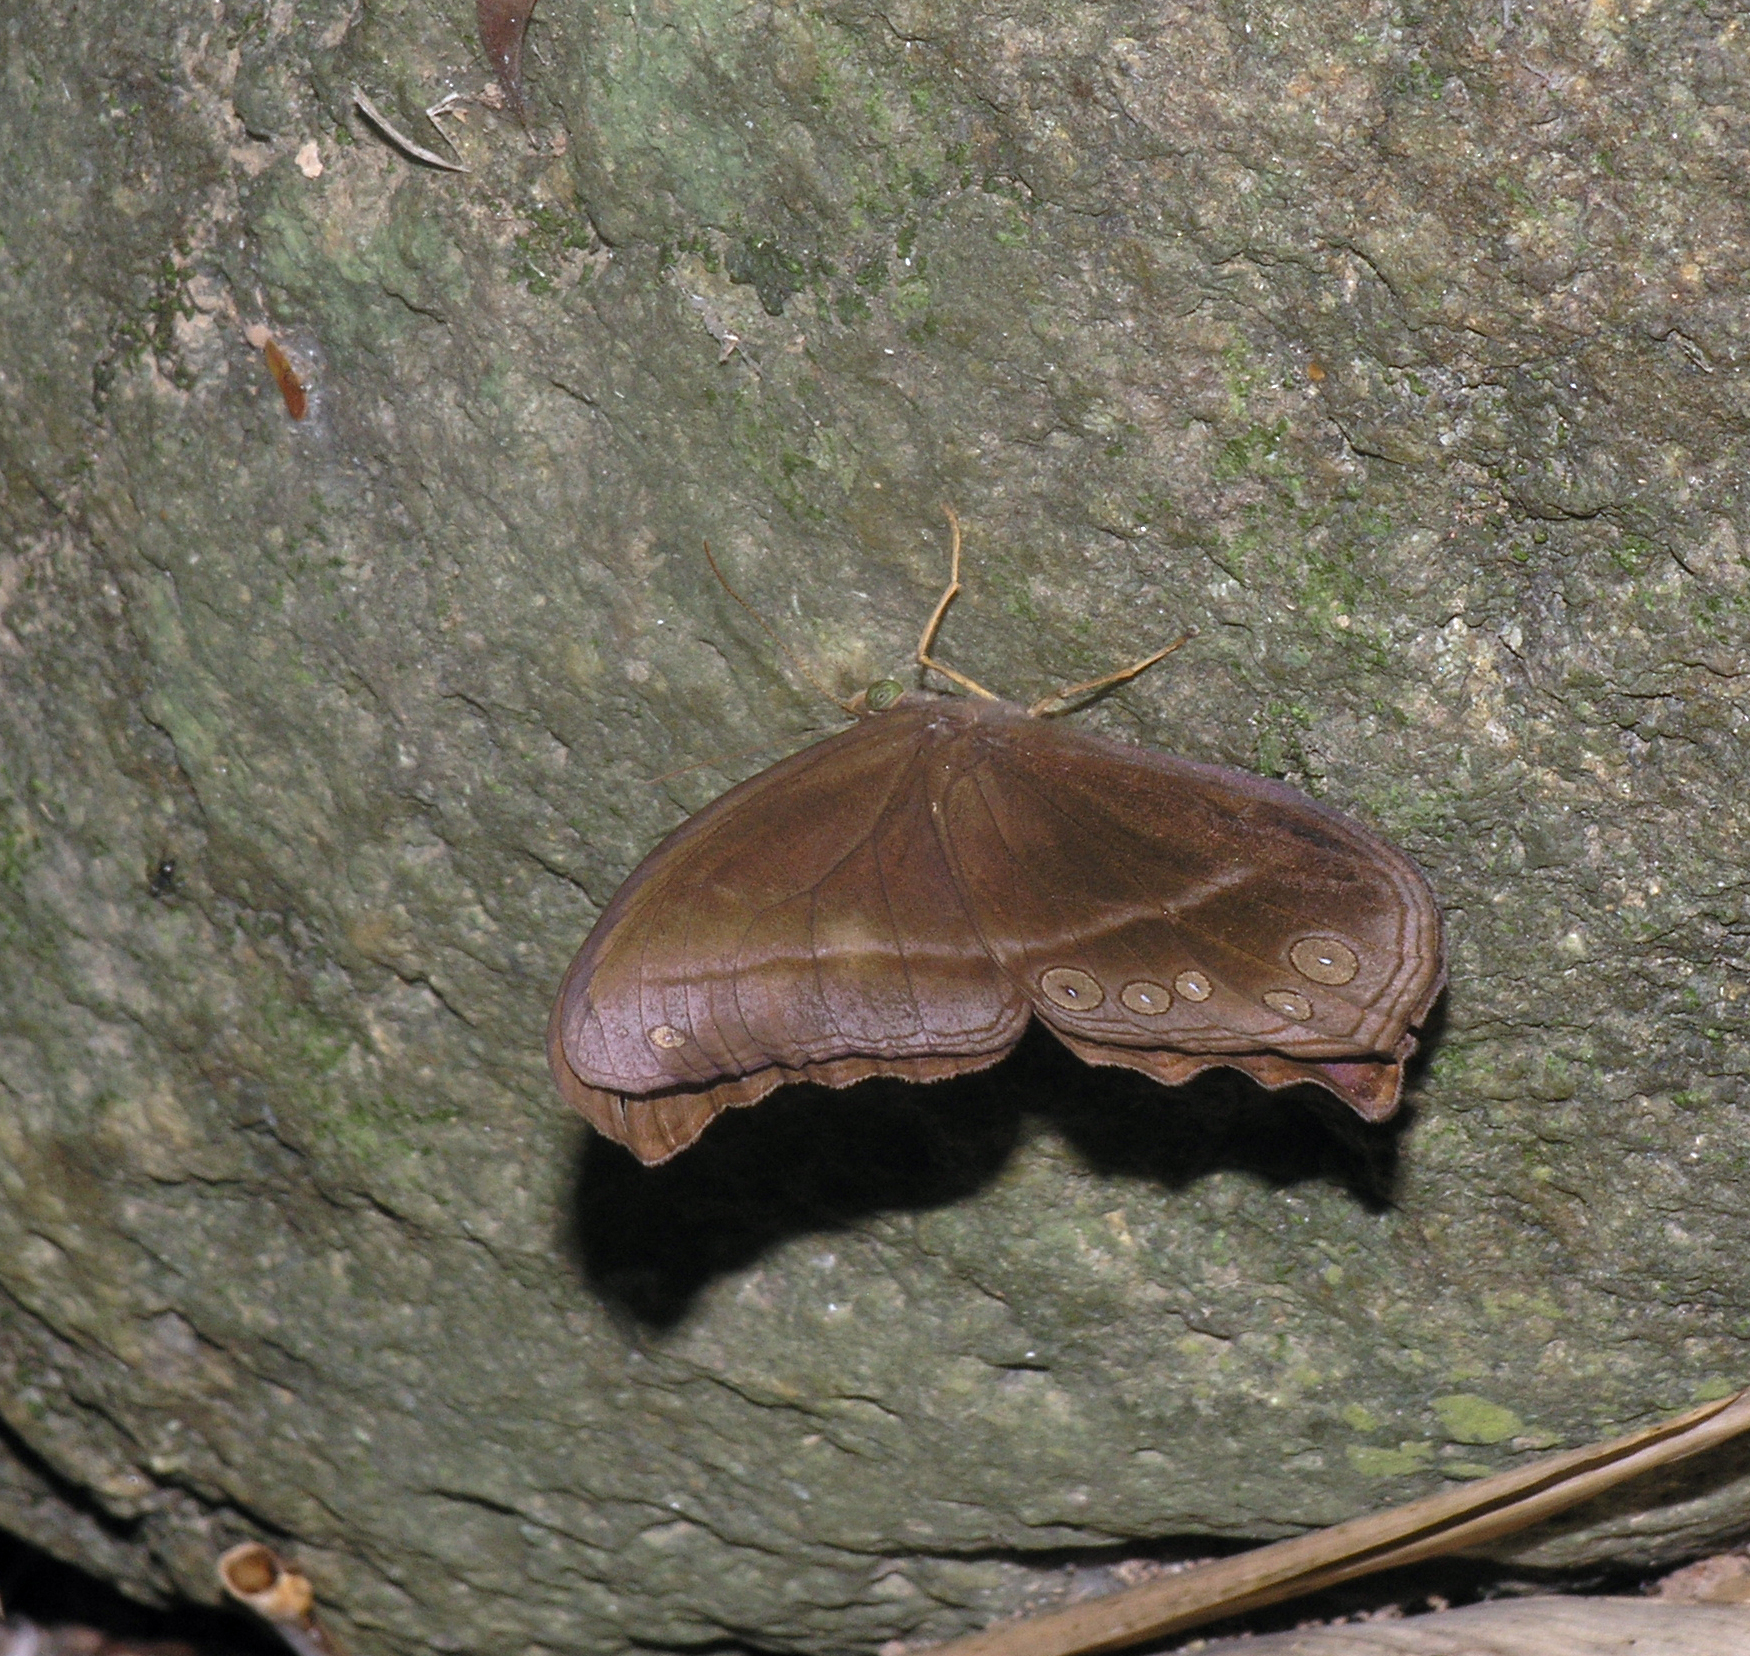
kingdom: Animalia
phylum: Arthropoda
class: Insecta
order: Lepidoptera
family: Nymphalidae
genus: Coelites
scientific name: Coelites epiminthia
